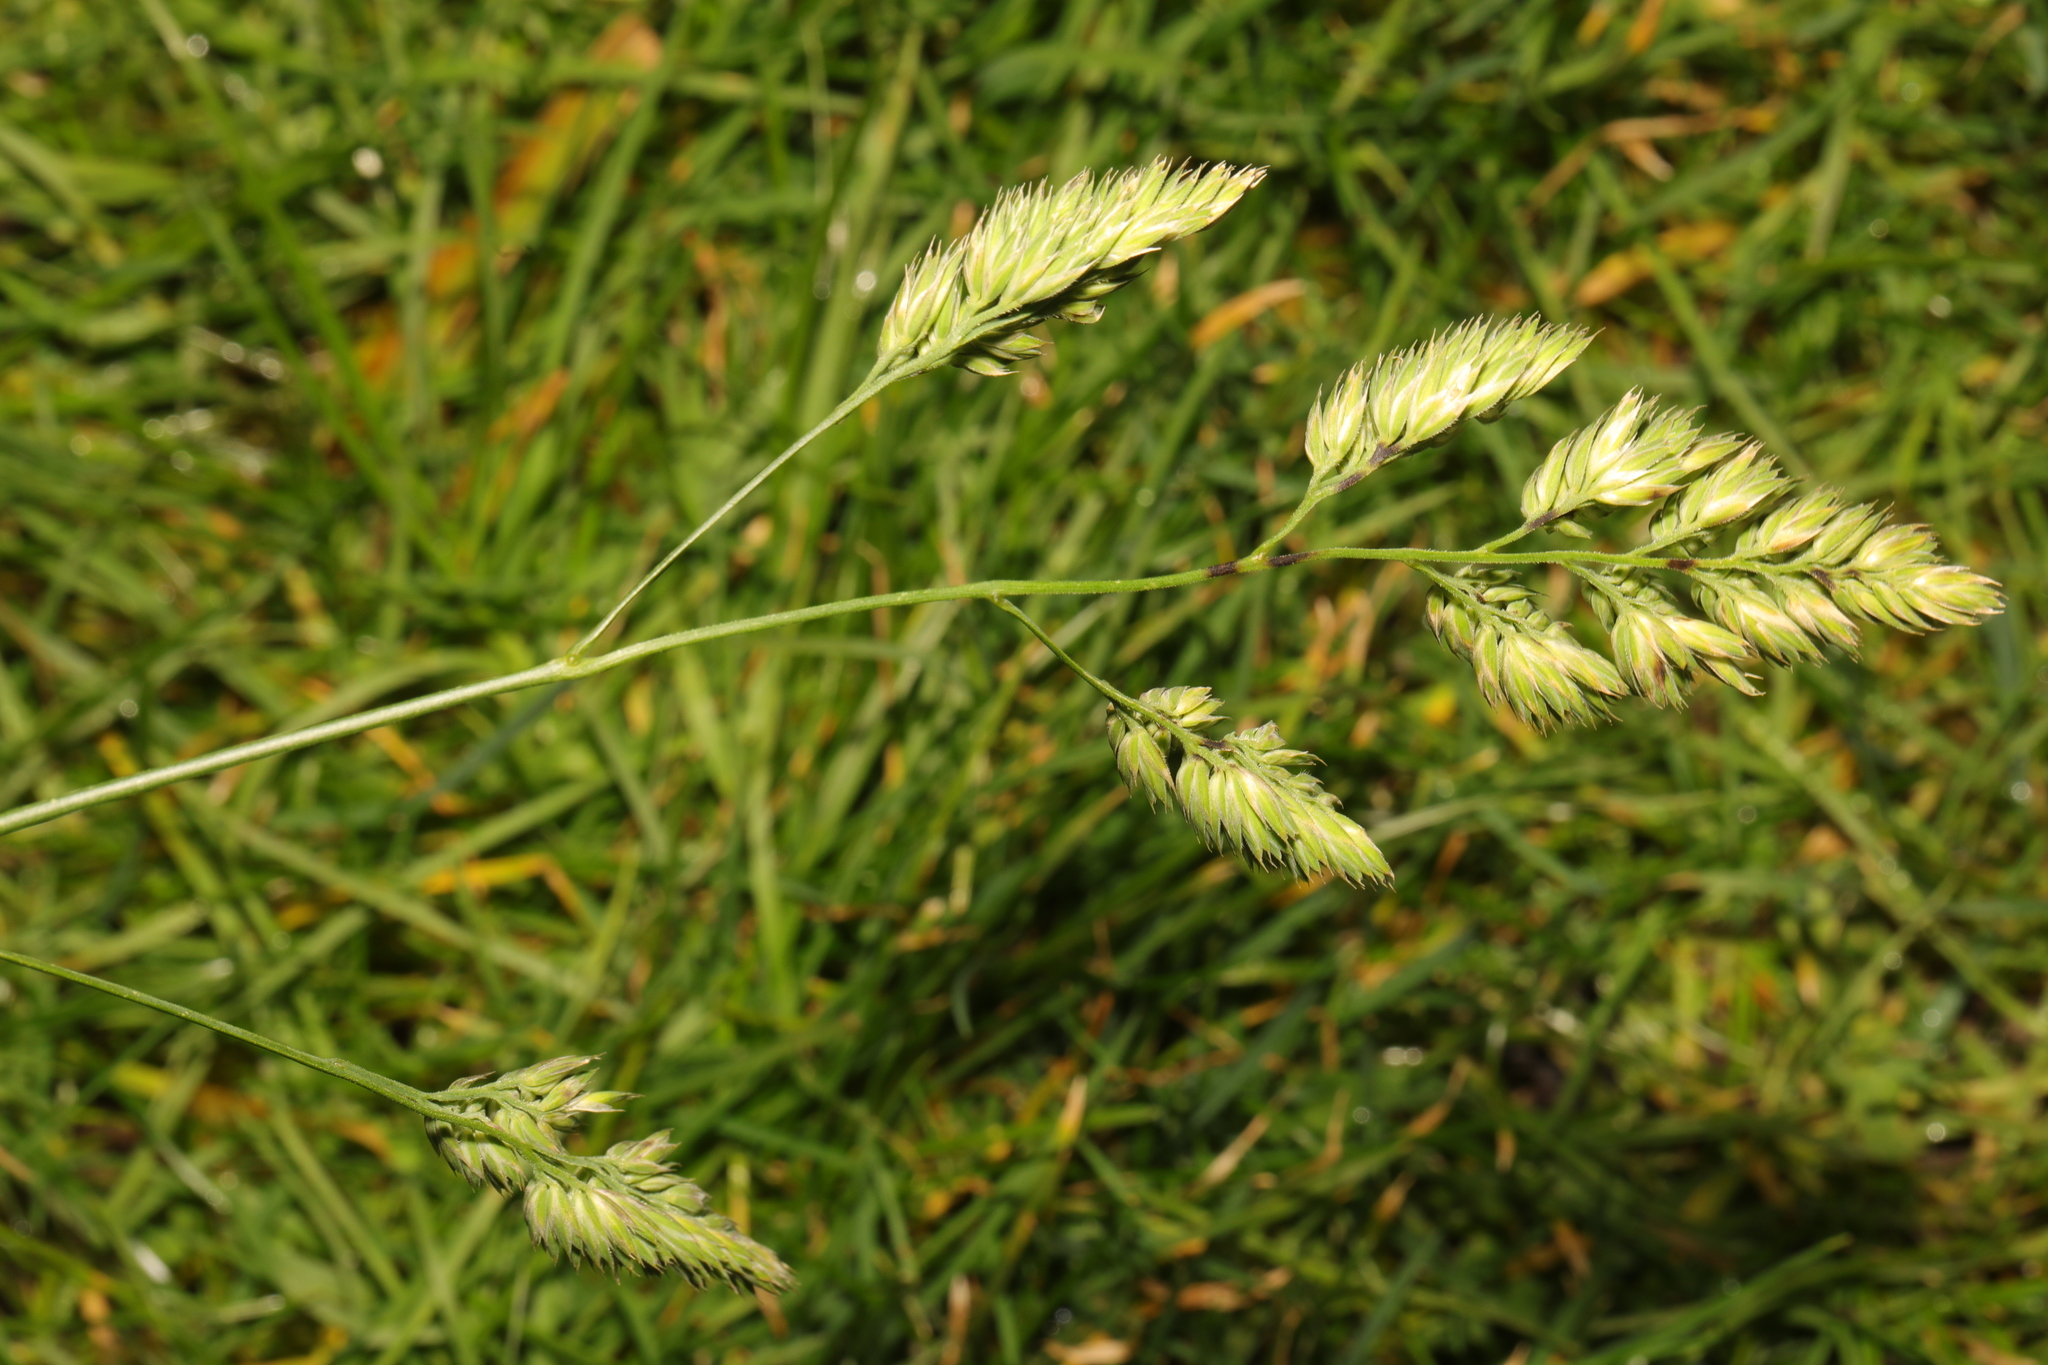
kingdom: Plantae
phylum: Tracheophyta
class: Liliopsida
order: Poales
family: Poaceae
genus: Dactylis
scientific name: Dactylis glomerata
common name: Orchardgrass
